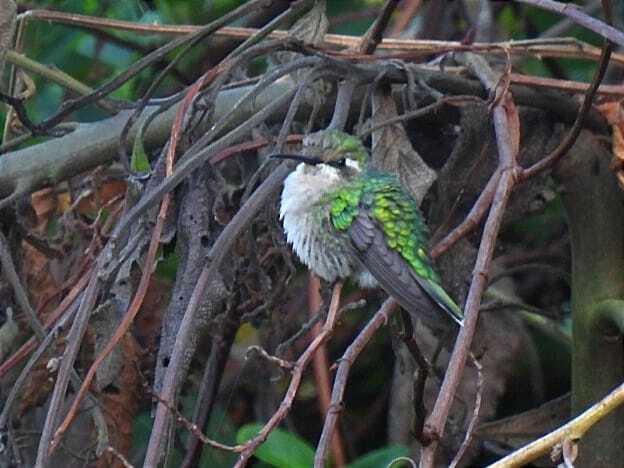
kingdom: Animalia
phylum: Chordata
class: Aves
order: Apodiformes
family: Trochilidae
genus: Chlorostilbon
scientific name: Chlorostilbon poortmani
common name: Short-tailed emerald
